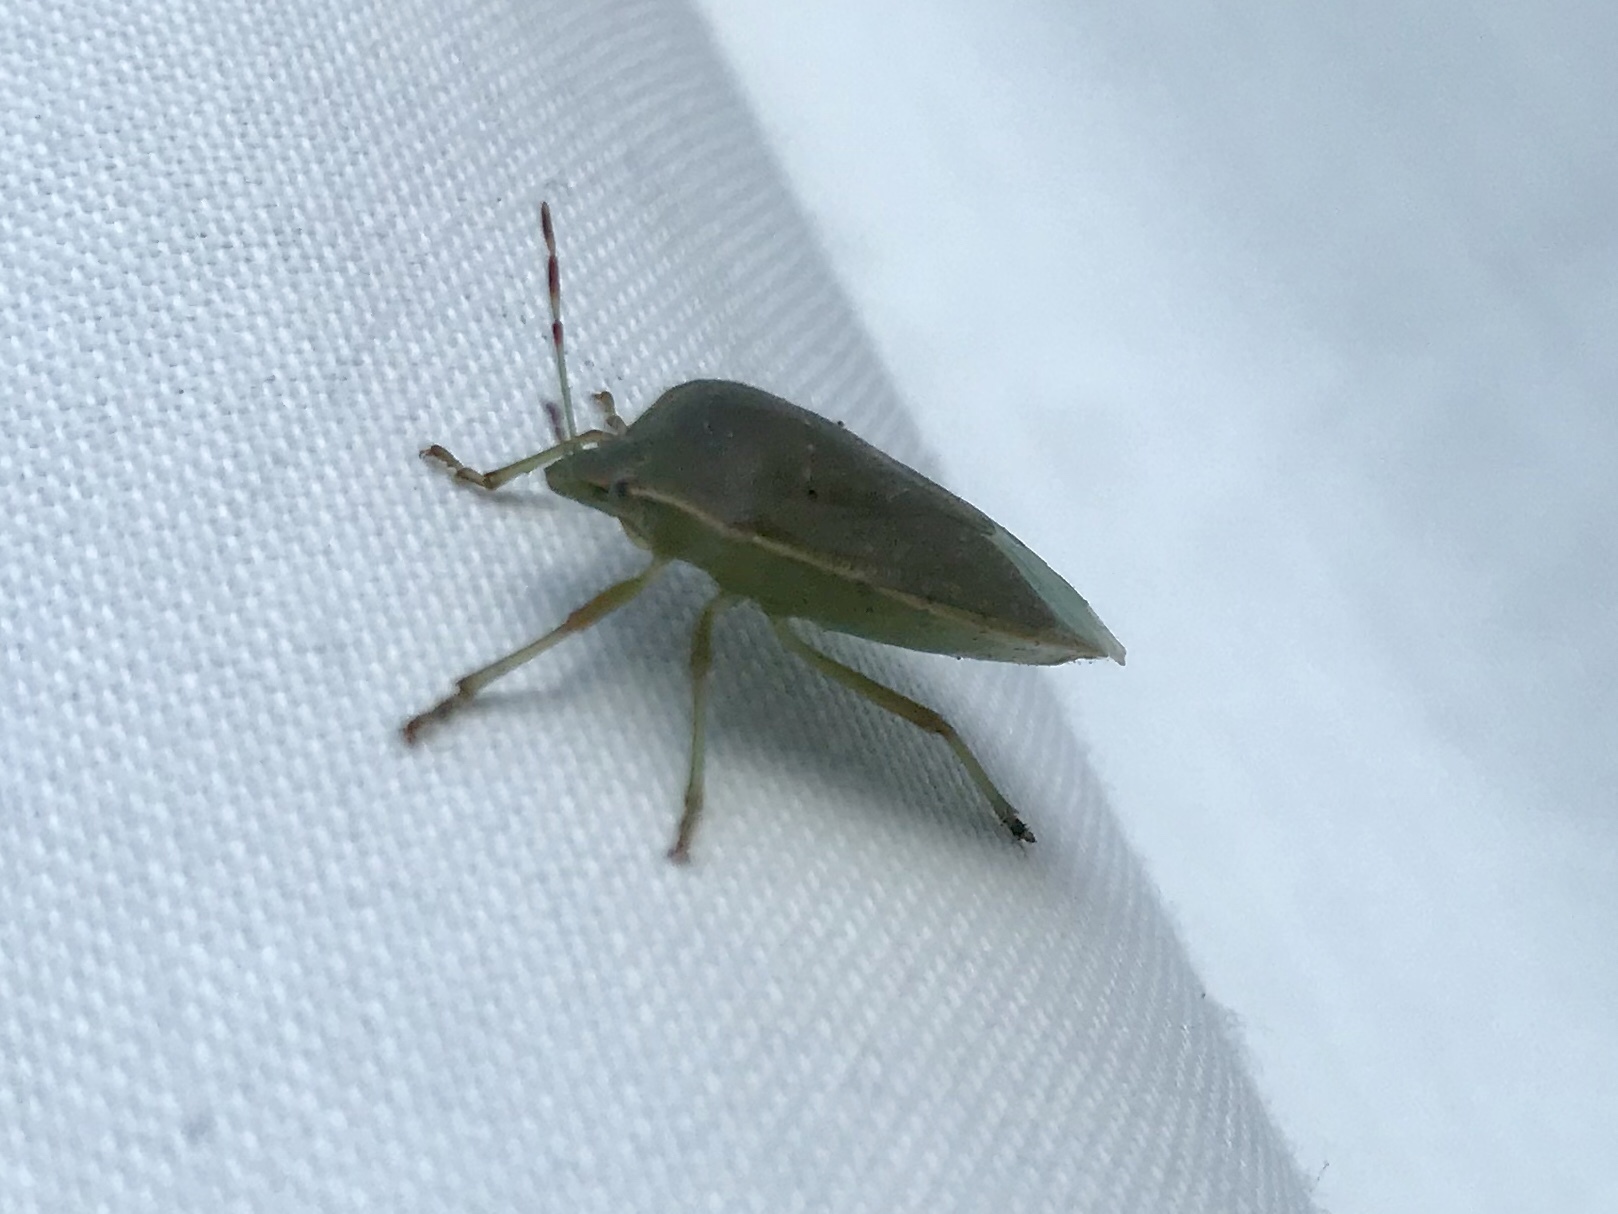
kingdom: Animalia
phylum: Arthropoda
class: Insecta
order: Hemiptera
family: Pentatomidae
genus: Nezara
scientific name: Nezara viridula
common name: Southern green stink bug
